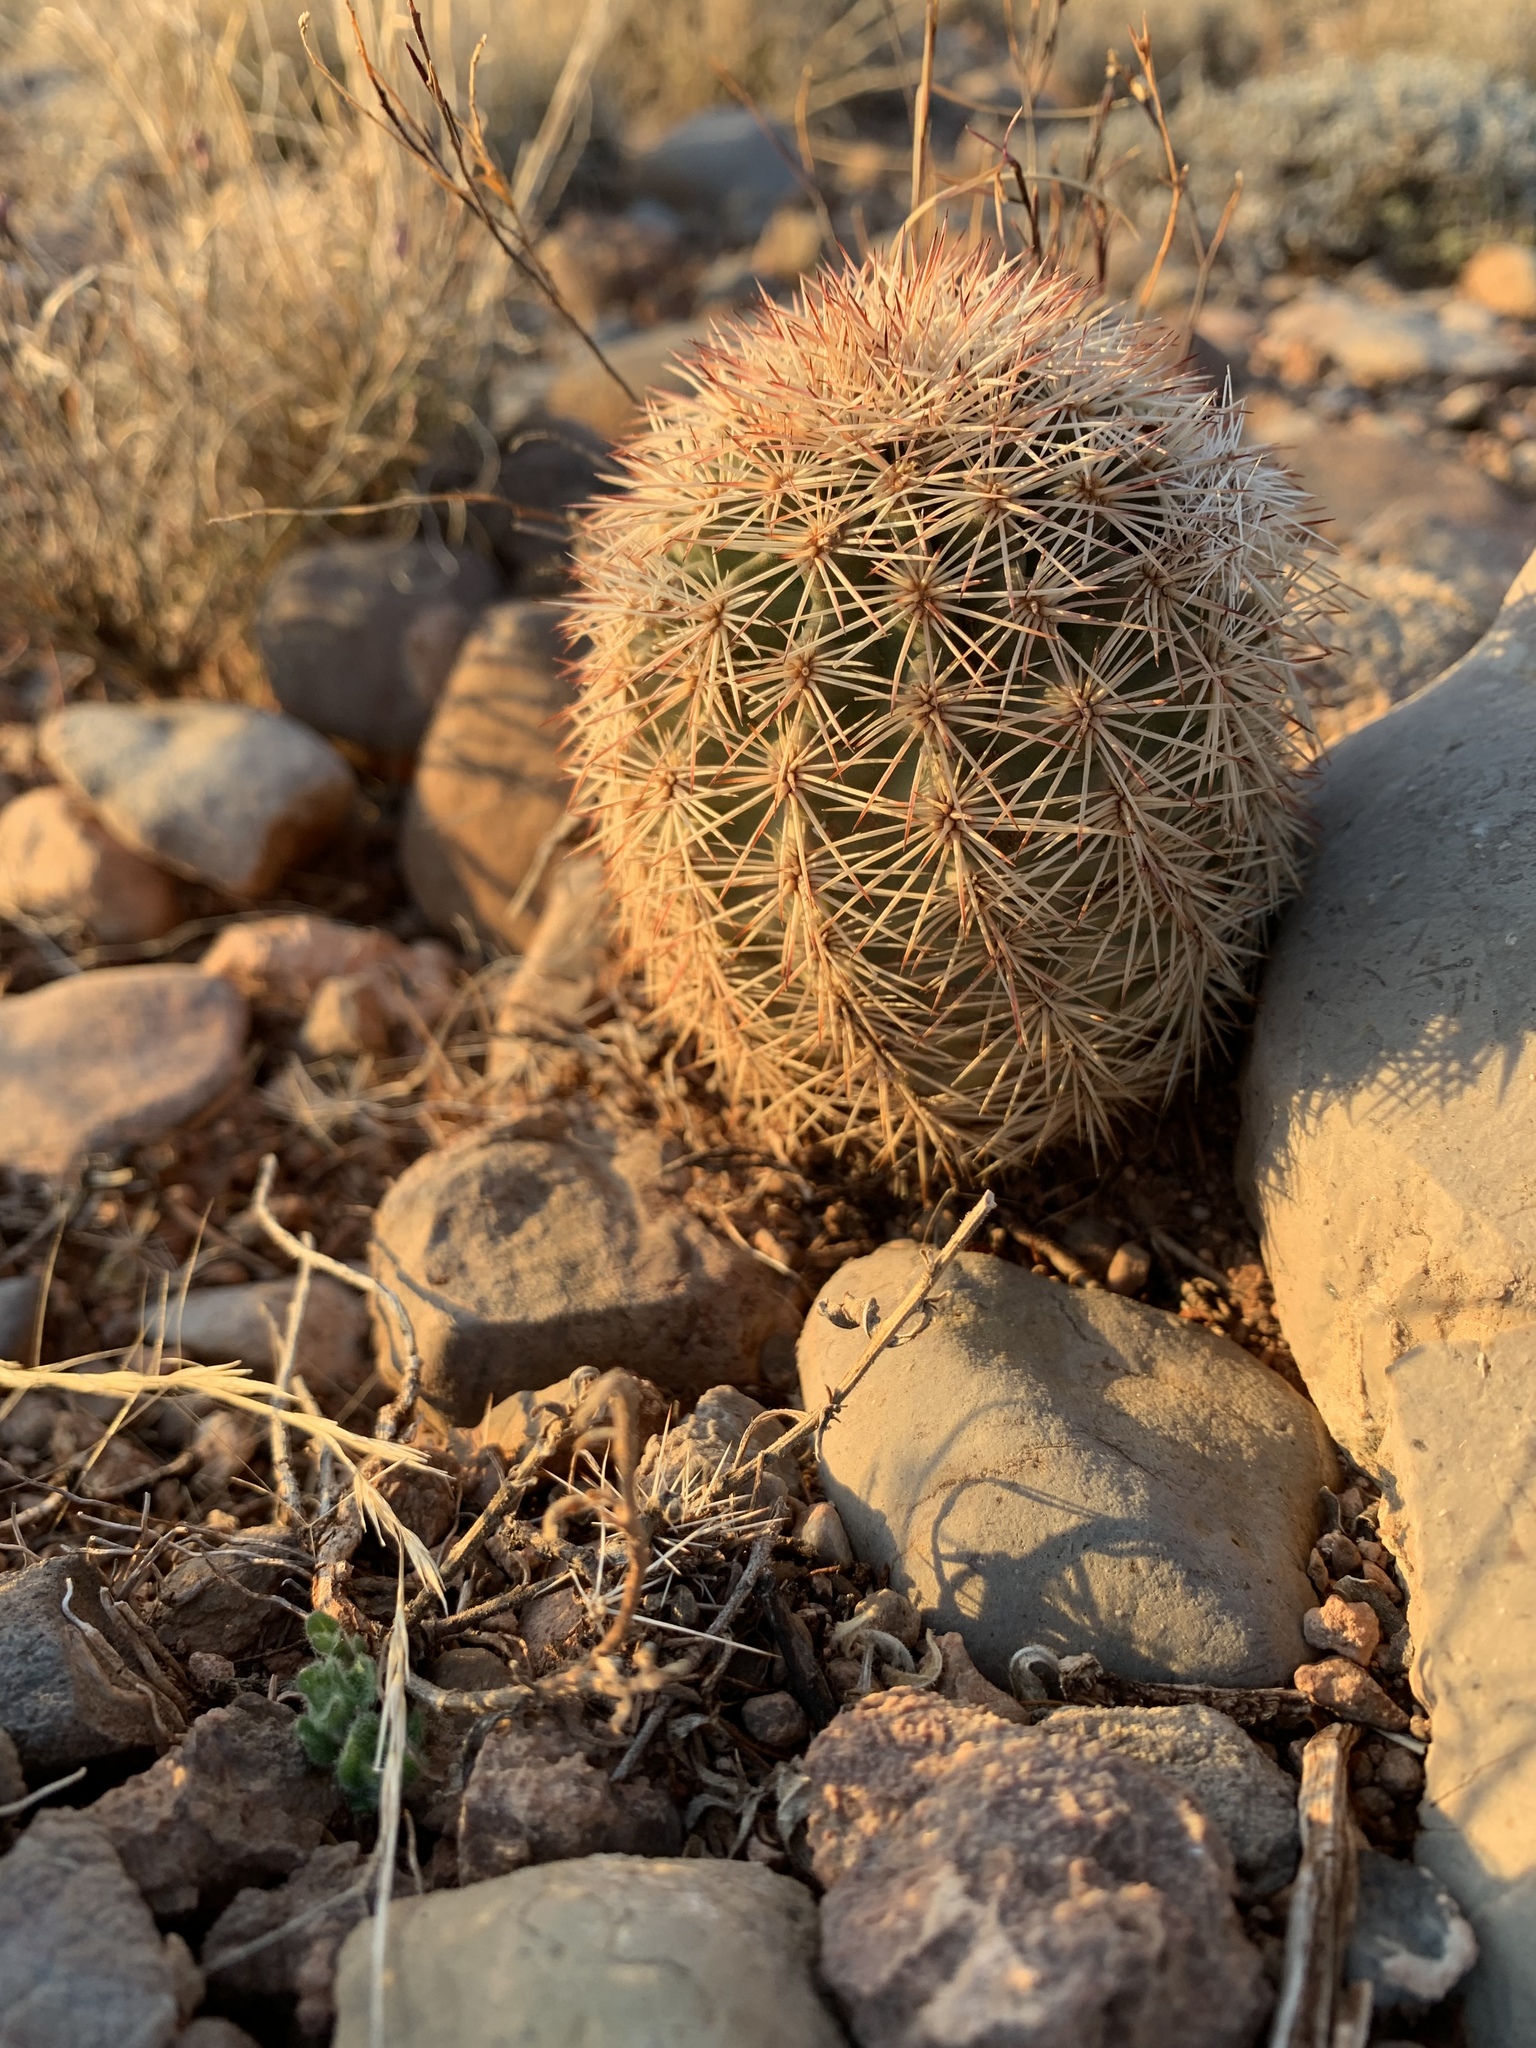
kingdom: Plantae
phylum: Tracheophyta
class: Magnoliopsida
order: Caryophyllales
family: Cactaceae
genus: Echinocereus
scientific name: Echinocereus dasyacanthus
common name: Spiny hedgehog cactus
